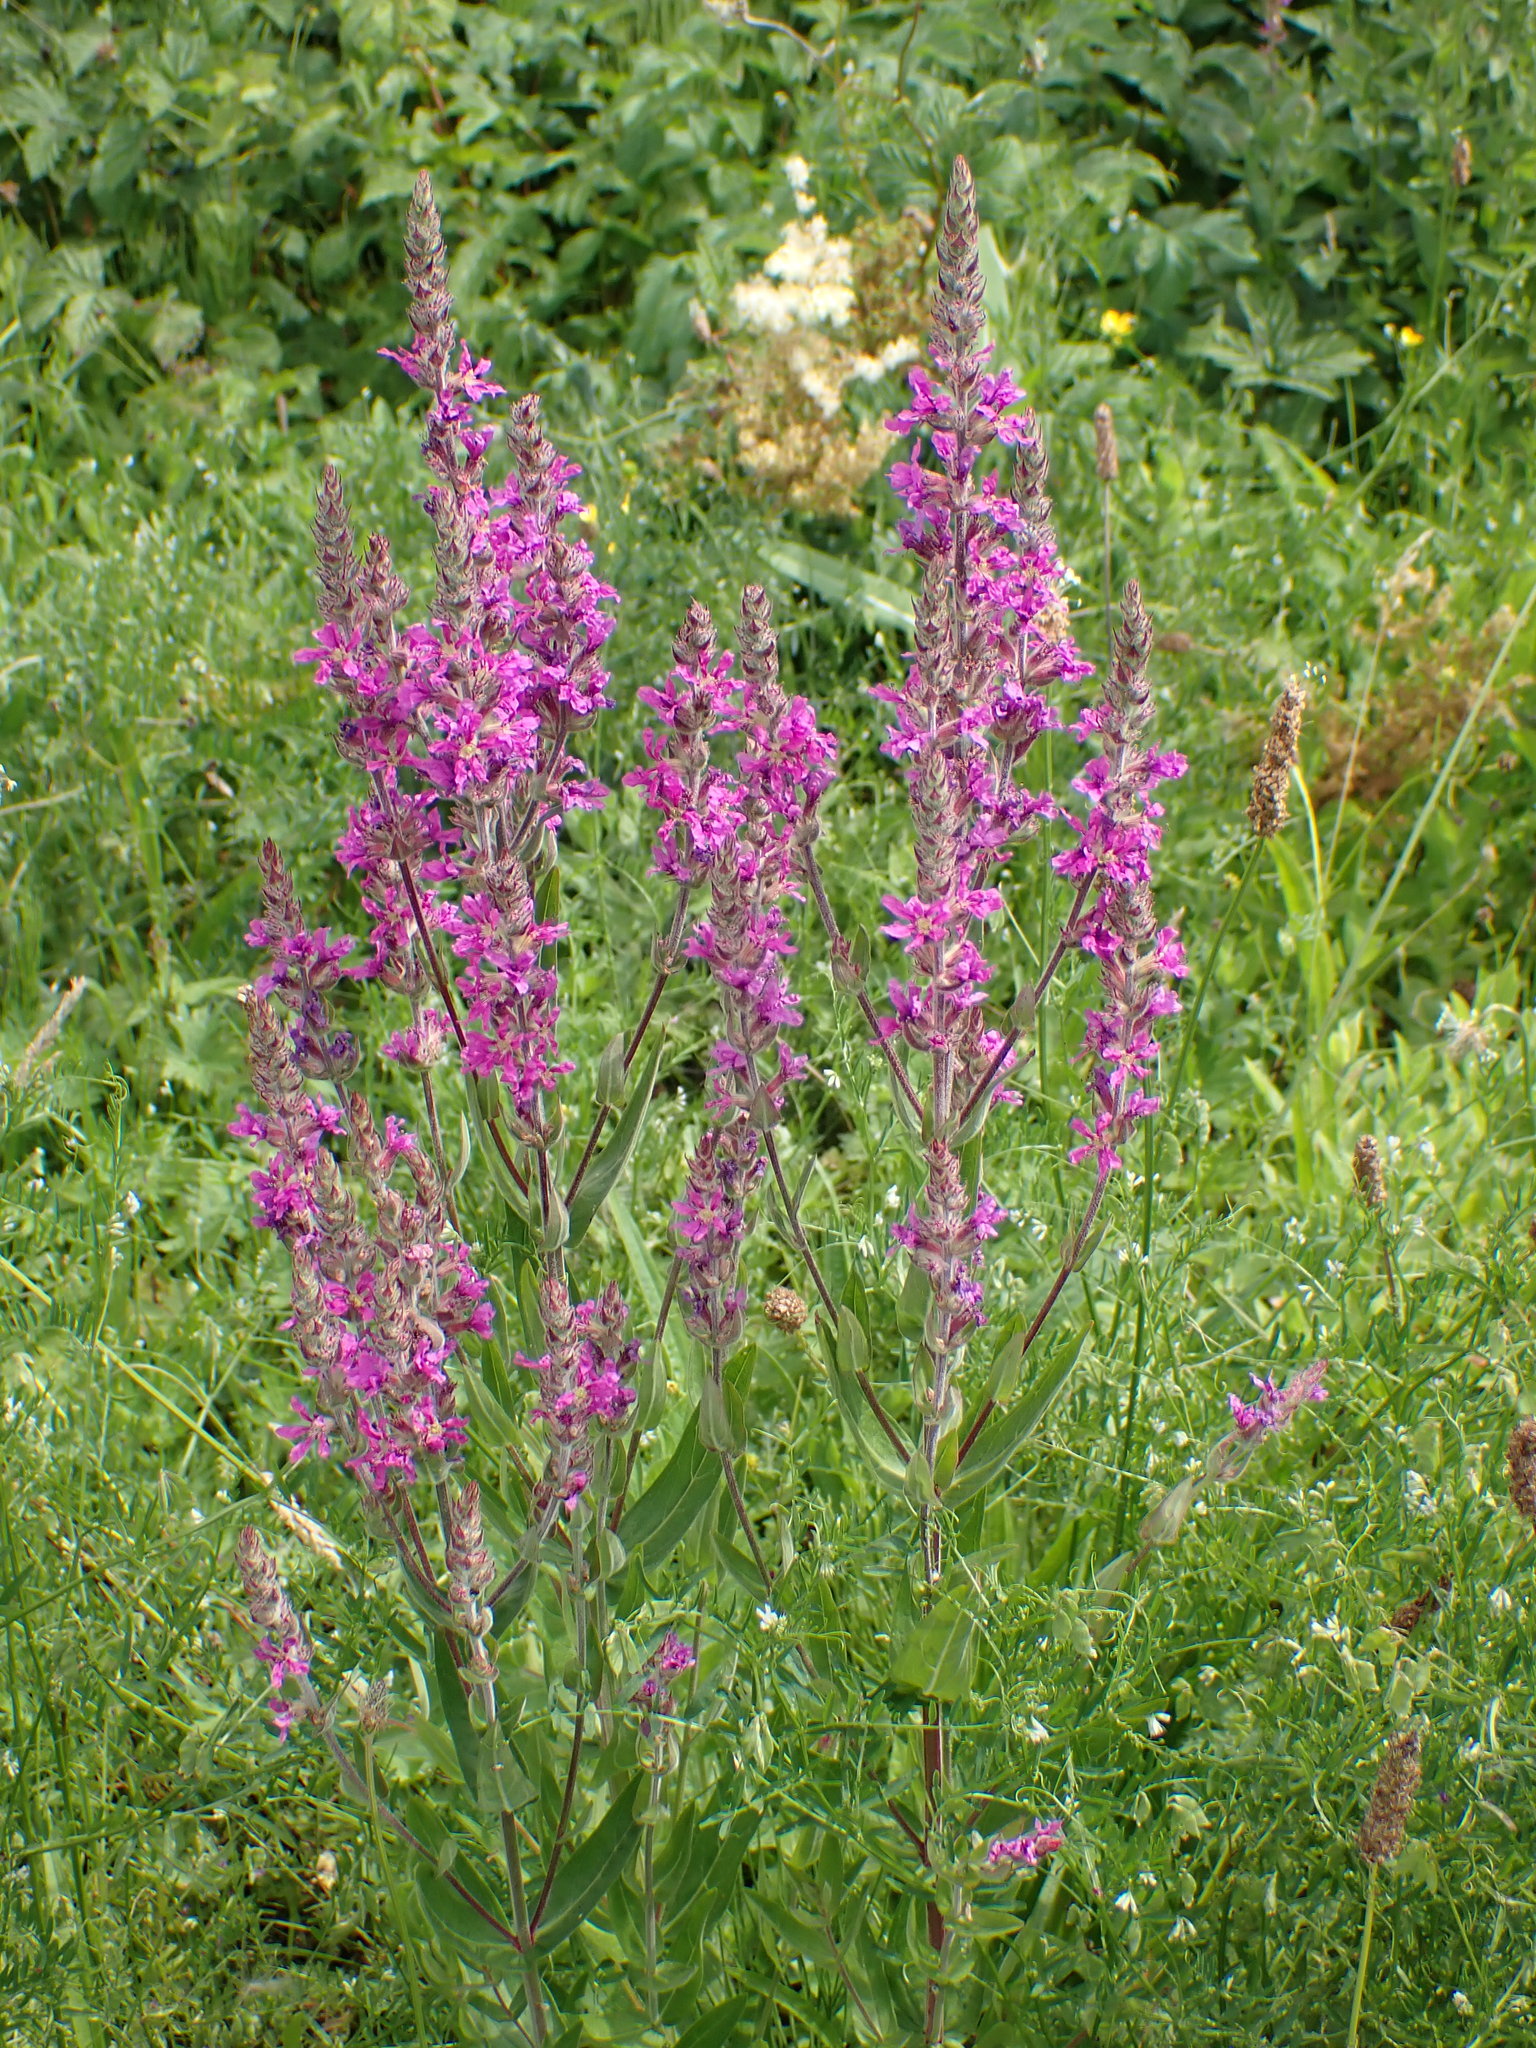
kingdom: Plantae
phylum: Tracheophyta
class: Magnoliopsida
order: Myrtales
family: Lythraceae
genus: Lythrum
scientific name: Lythrum salicaria
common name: Purple loosestrife
